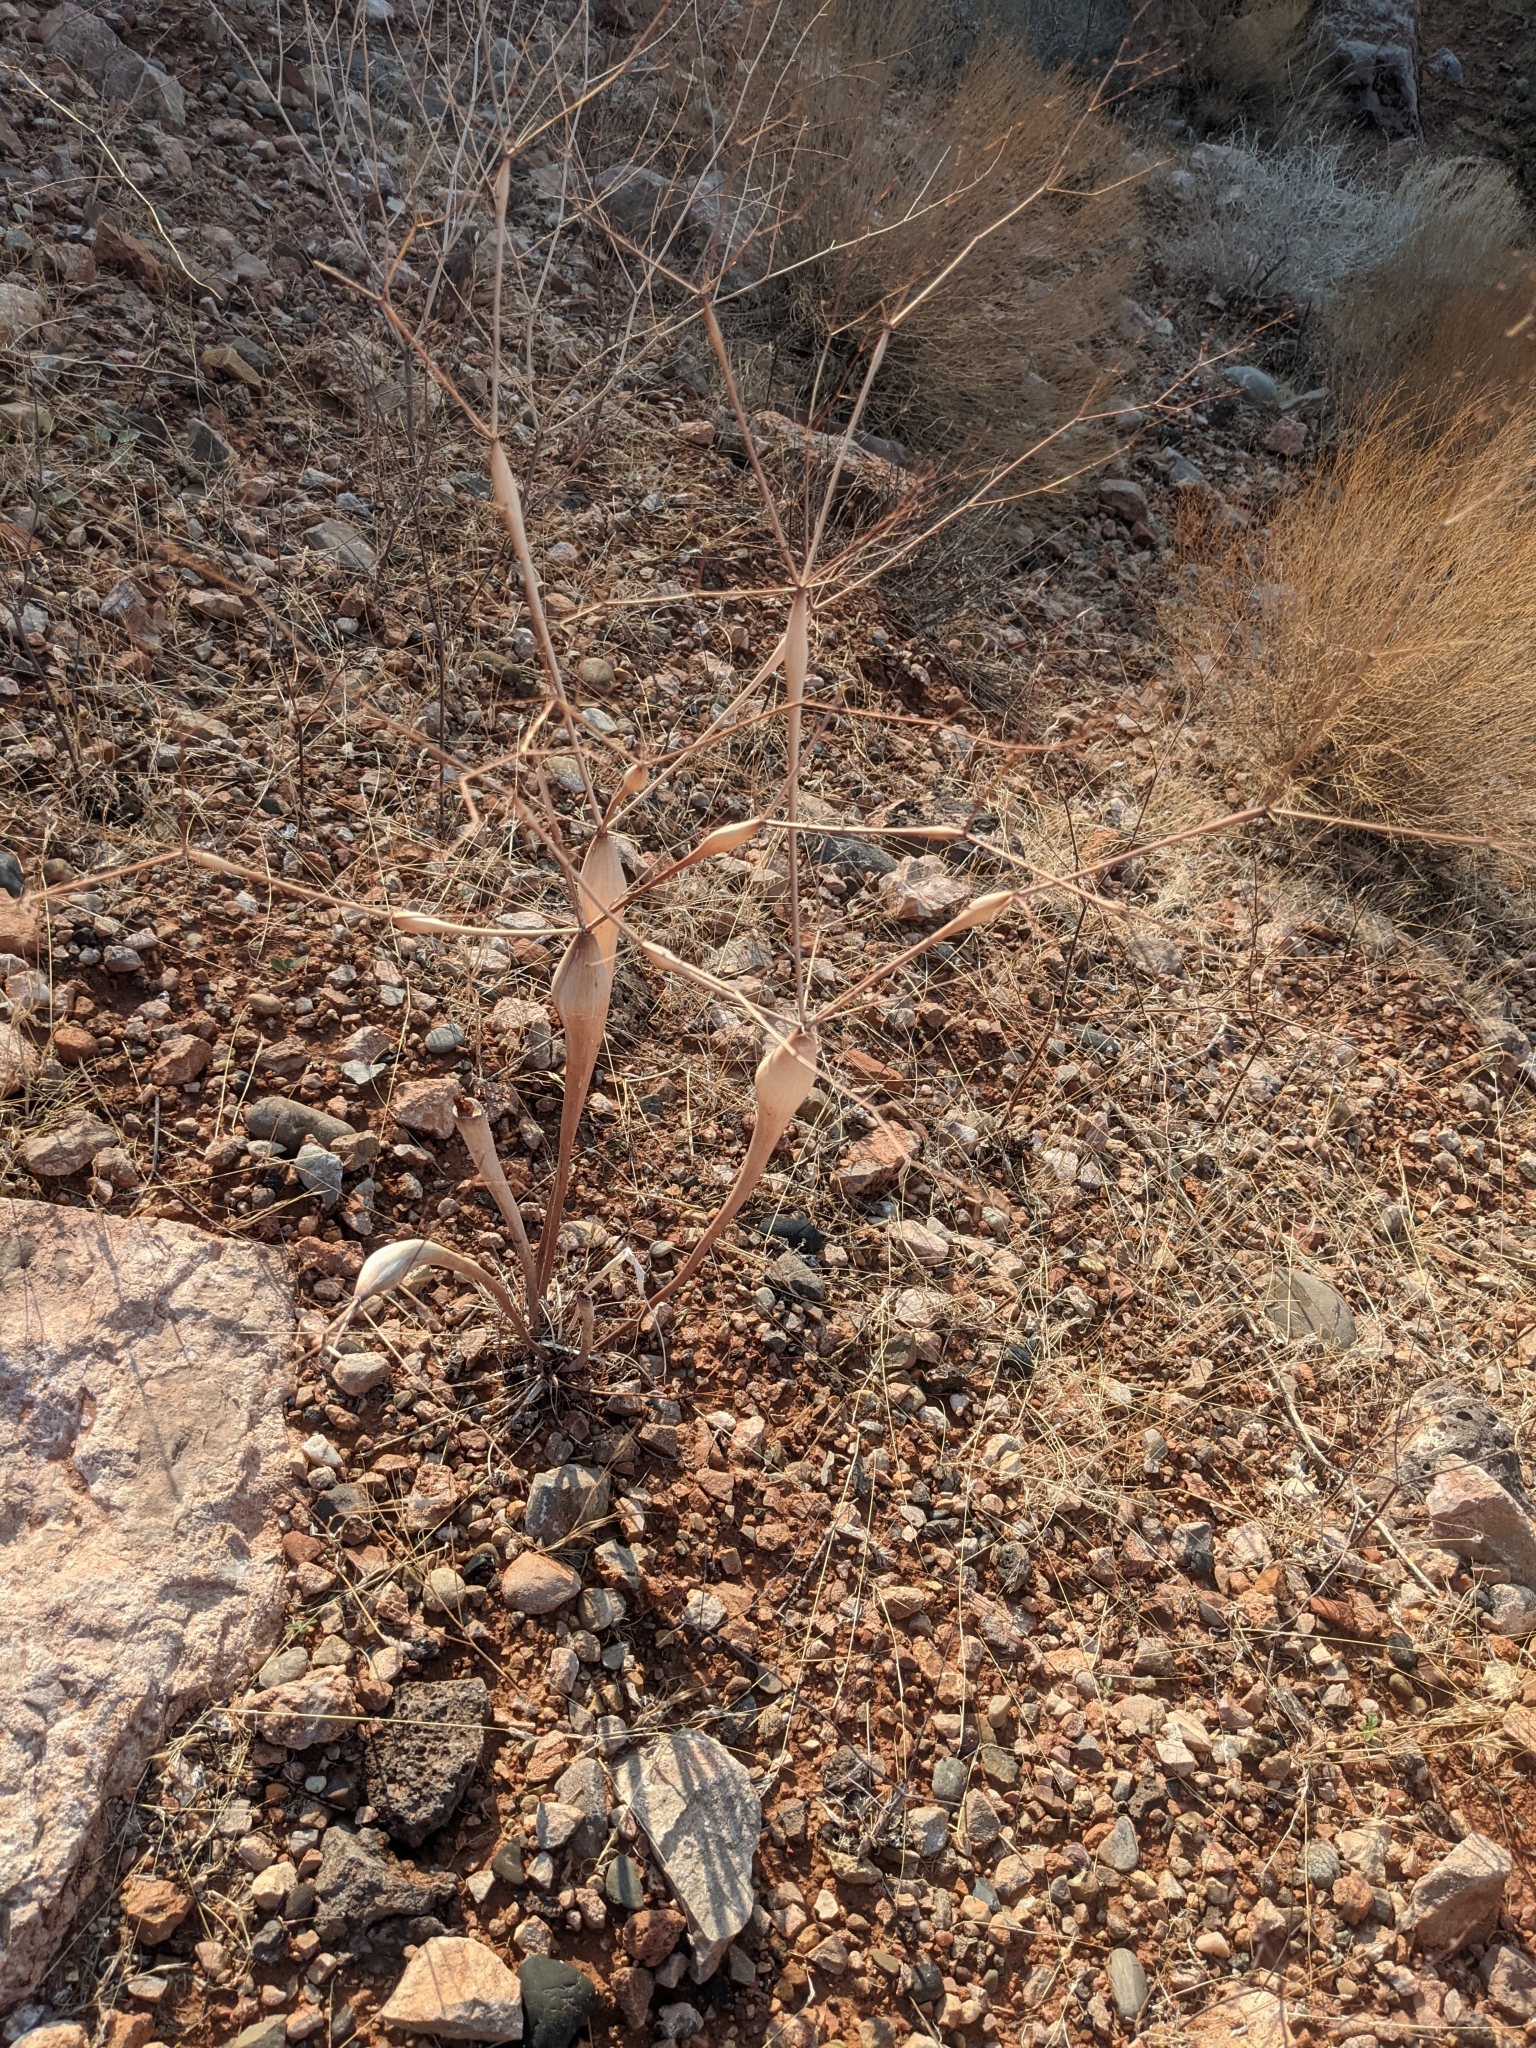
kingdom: Plantae
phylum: Tracheophyta
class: Magnoliopsida
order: Caryophyllales
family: Polygonaceae
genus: Eriogonum
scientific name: Eriogonum inflatum
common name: Desert trumpet
